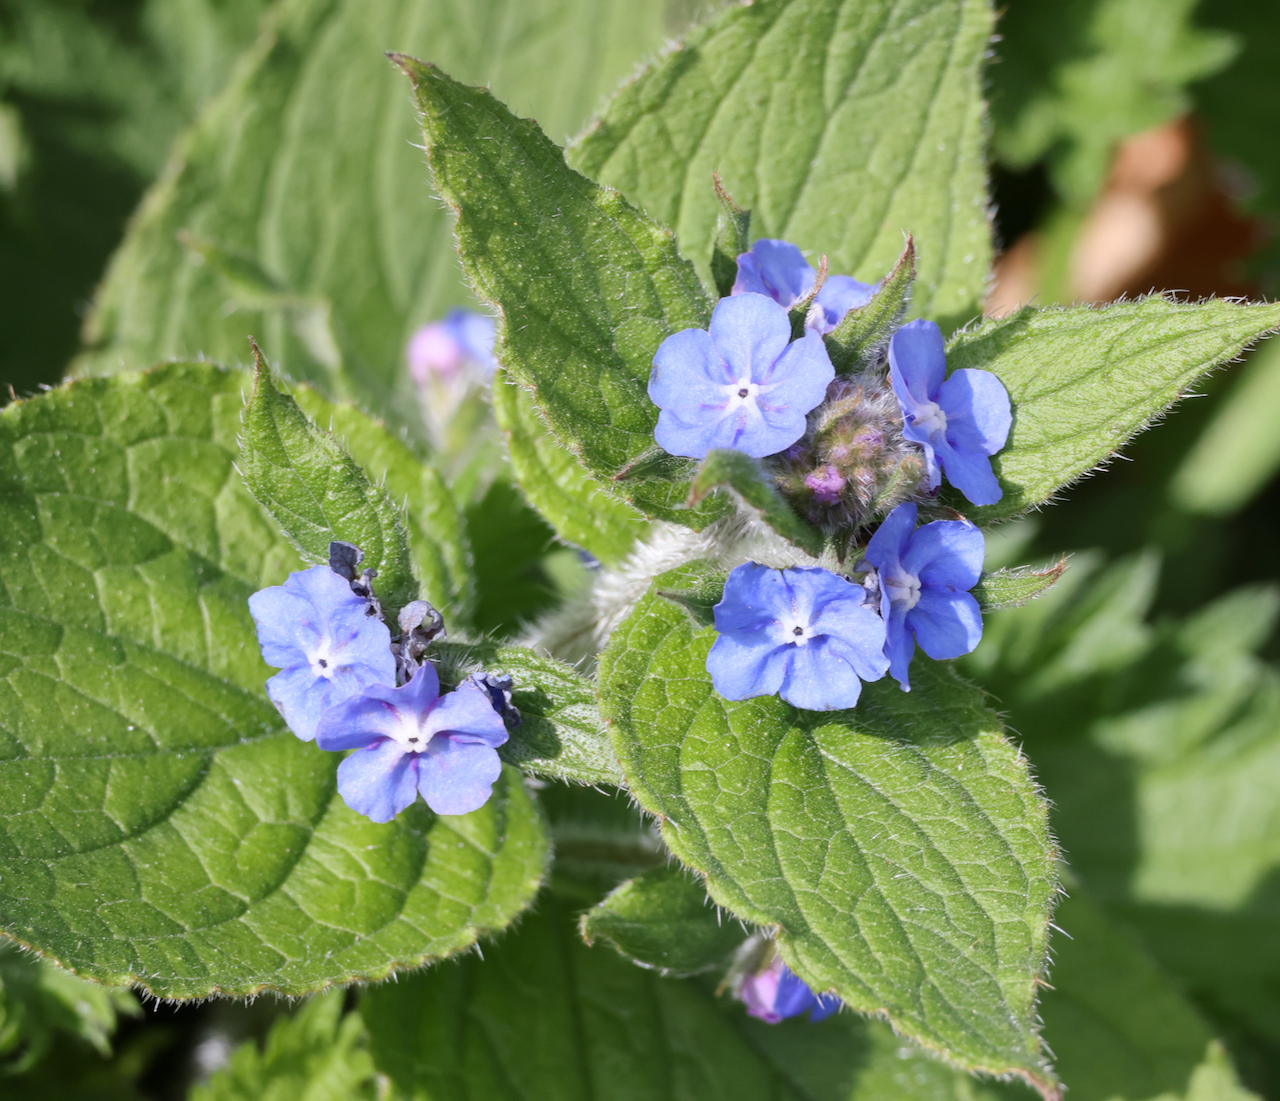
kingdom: Plantae
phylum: Tracheophyta
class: Magnoliopsida
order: Boraginales
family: Boraginaceae
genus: Pentaglottis
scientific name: Pentaglottis sempervirens
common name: Green alkanet
